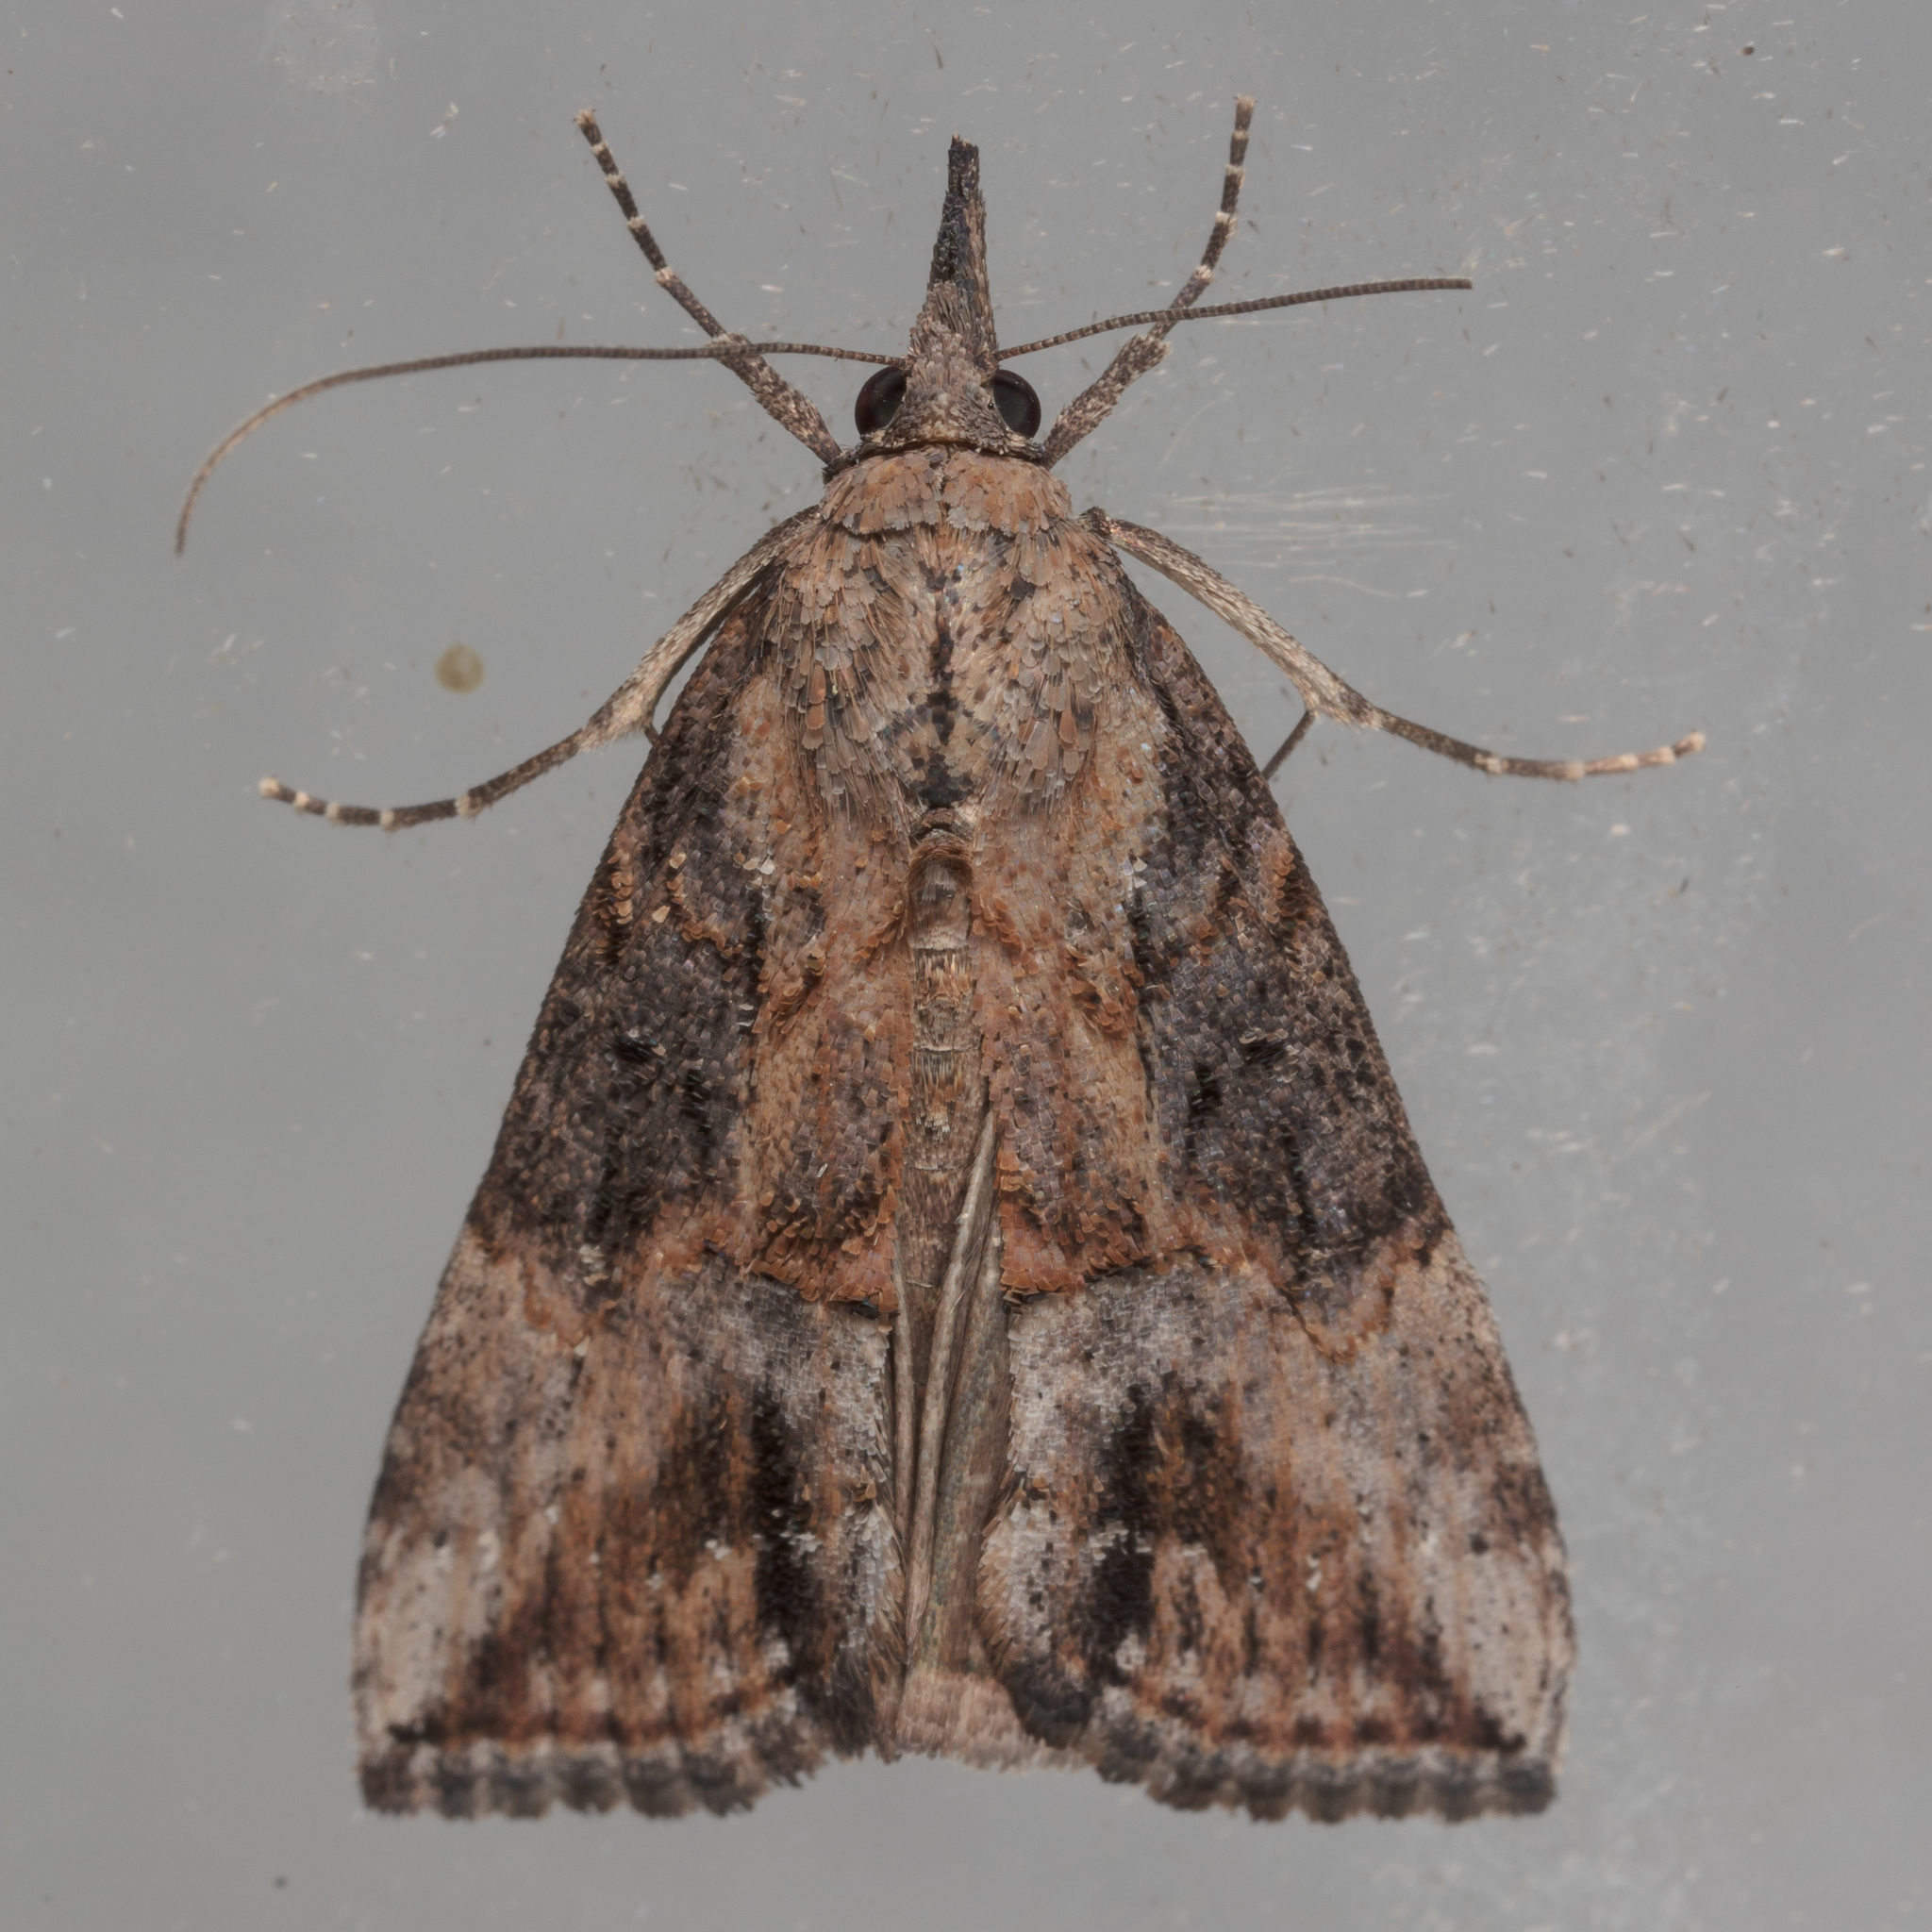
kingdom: Animalia
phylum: Arthropoda
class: Insecta
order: Lepidoptera
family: Erebidae
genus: Hypena
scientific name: Hypena scabra
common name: Green cloverworm
